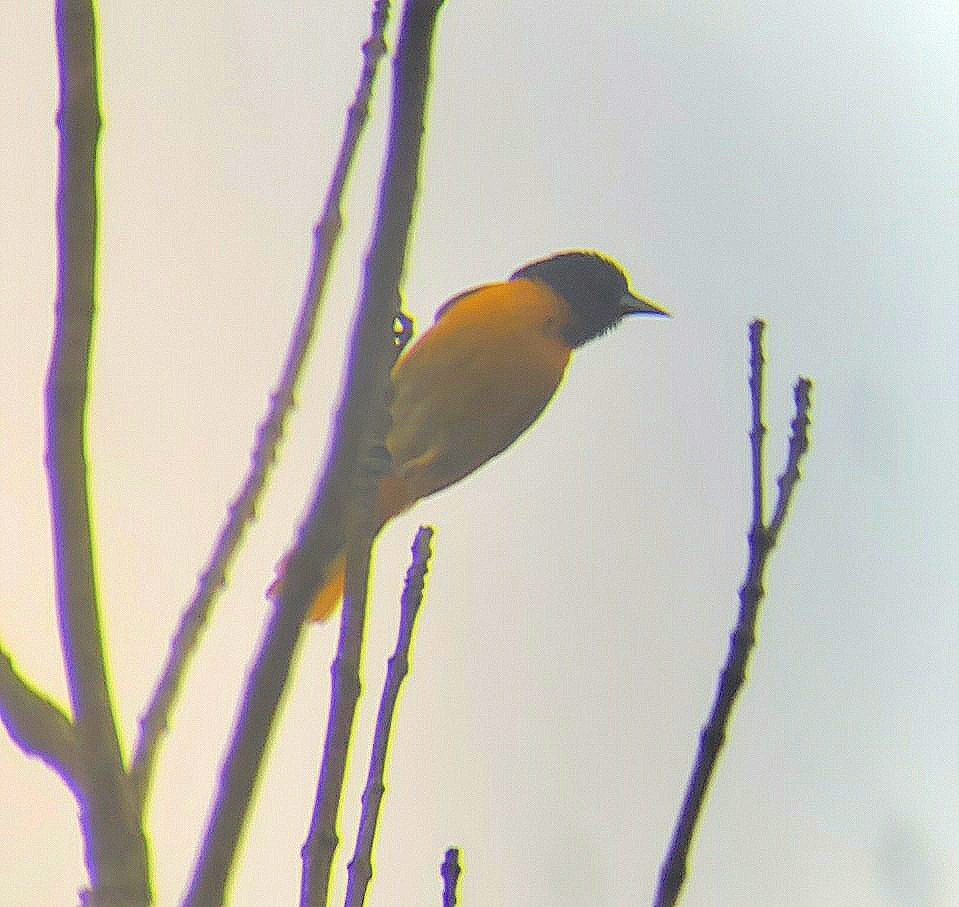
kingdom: Animalia
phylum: Chordata
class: Aves
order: Passeriformes
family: Icteridae
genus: Icterus
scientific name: Icterus galbula
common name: Baltimore oriole
